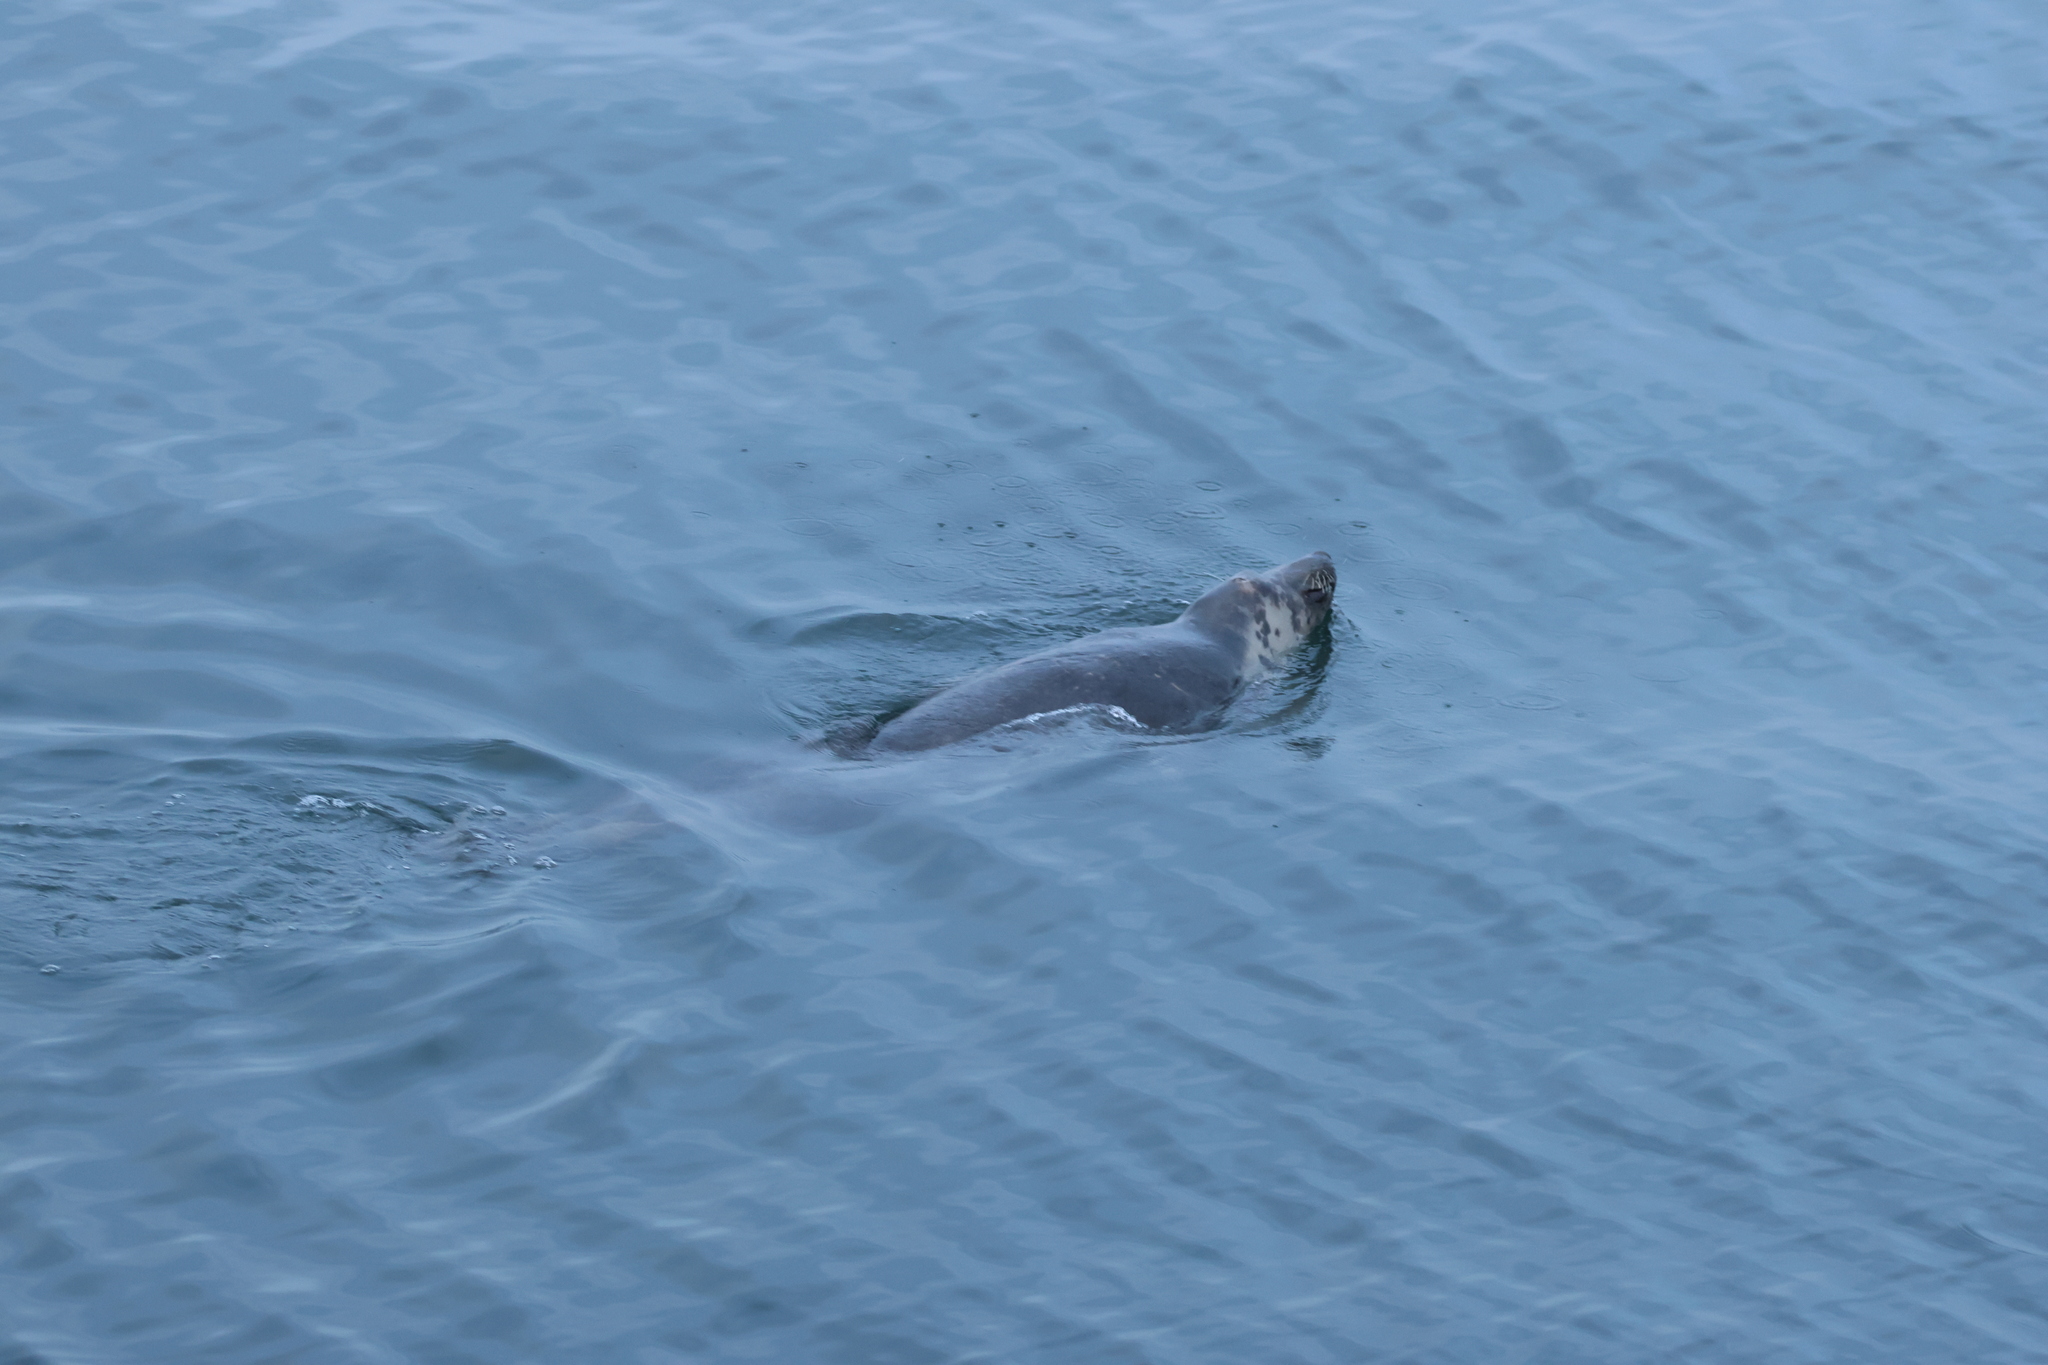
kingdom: Animalia
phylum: Chordata
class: Mammalia
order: Carnivora
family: Phocidae
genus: Halichoerus
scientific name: Halichoerus grypus
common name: Grey seal
